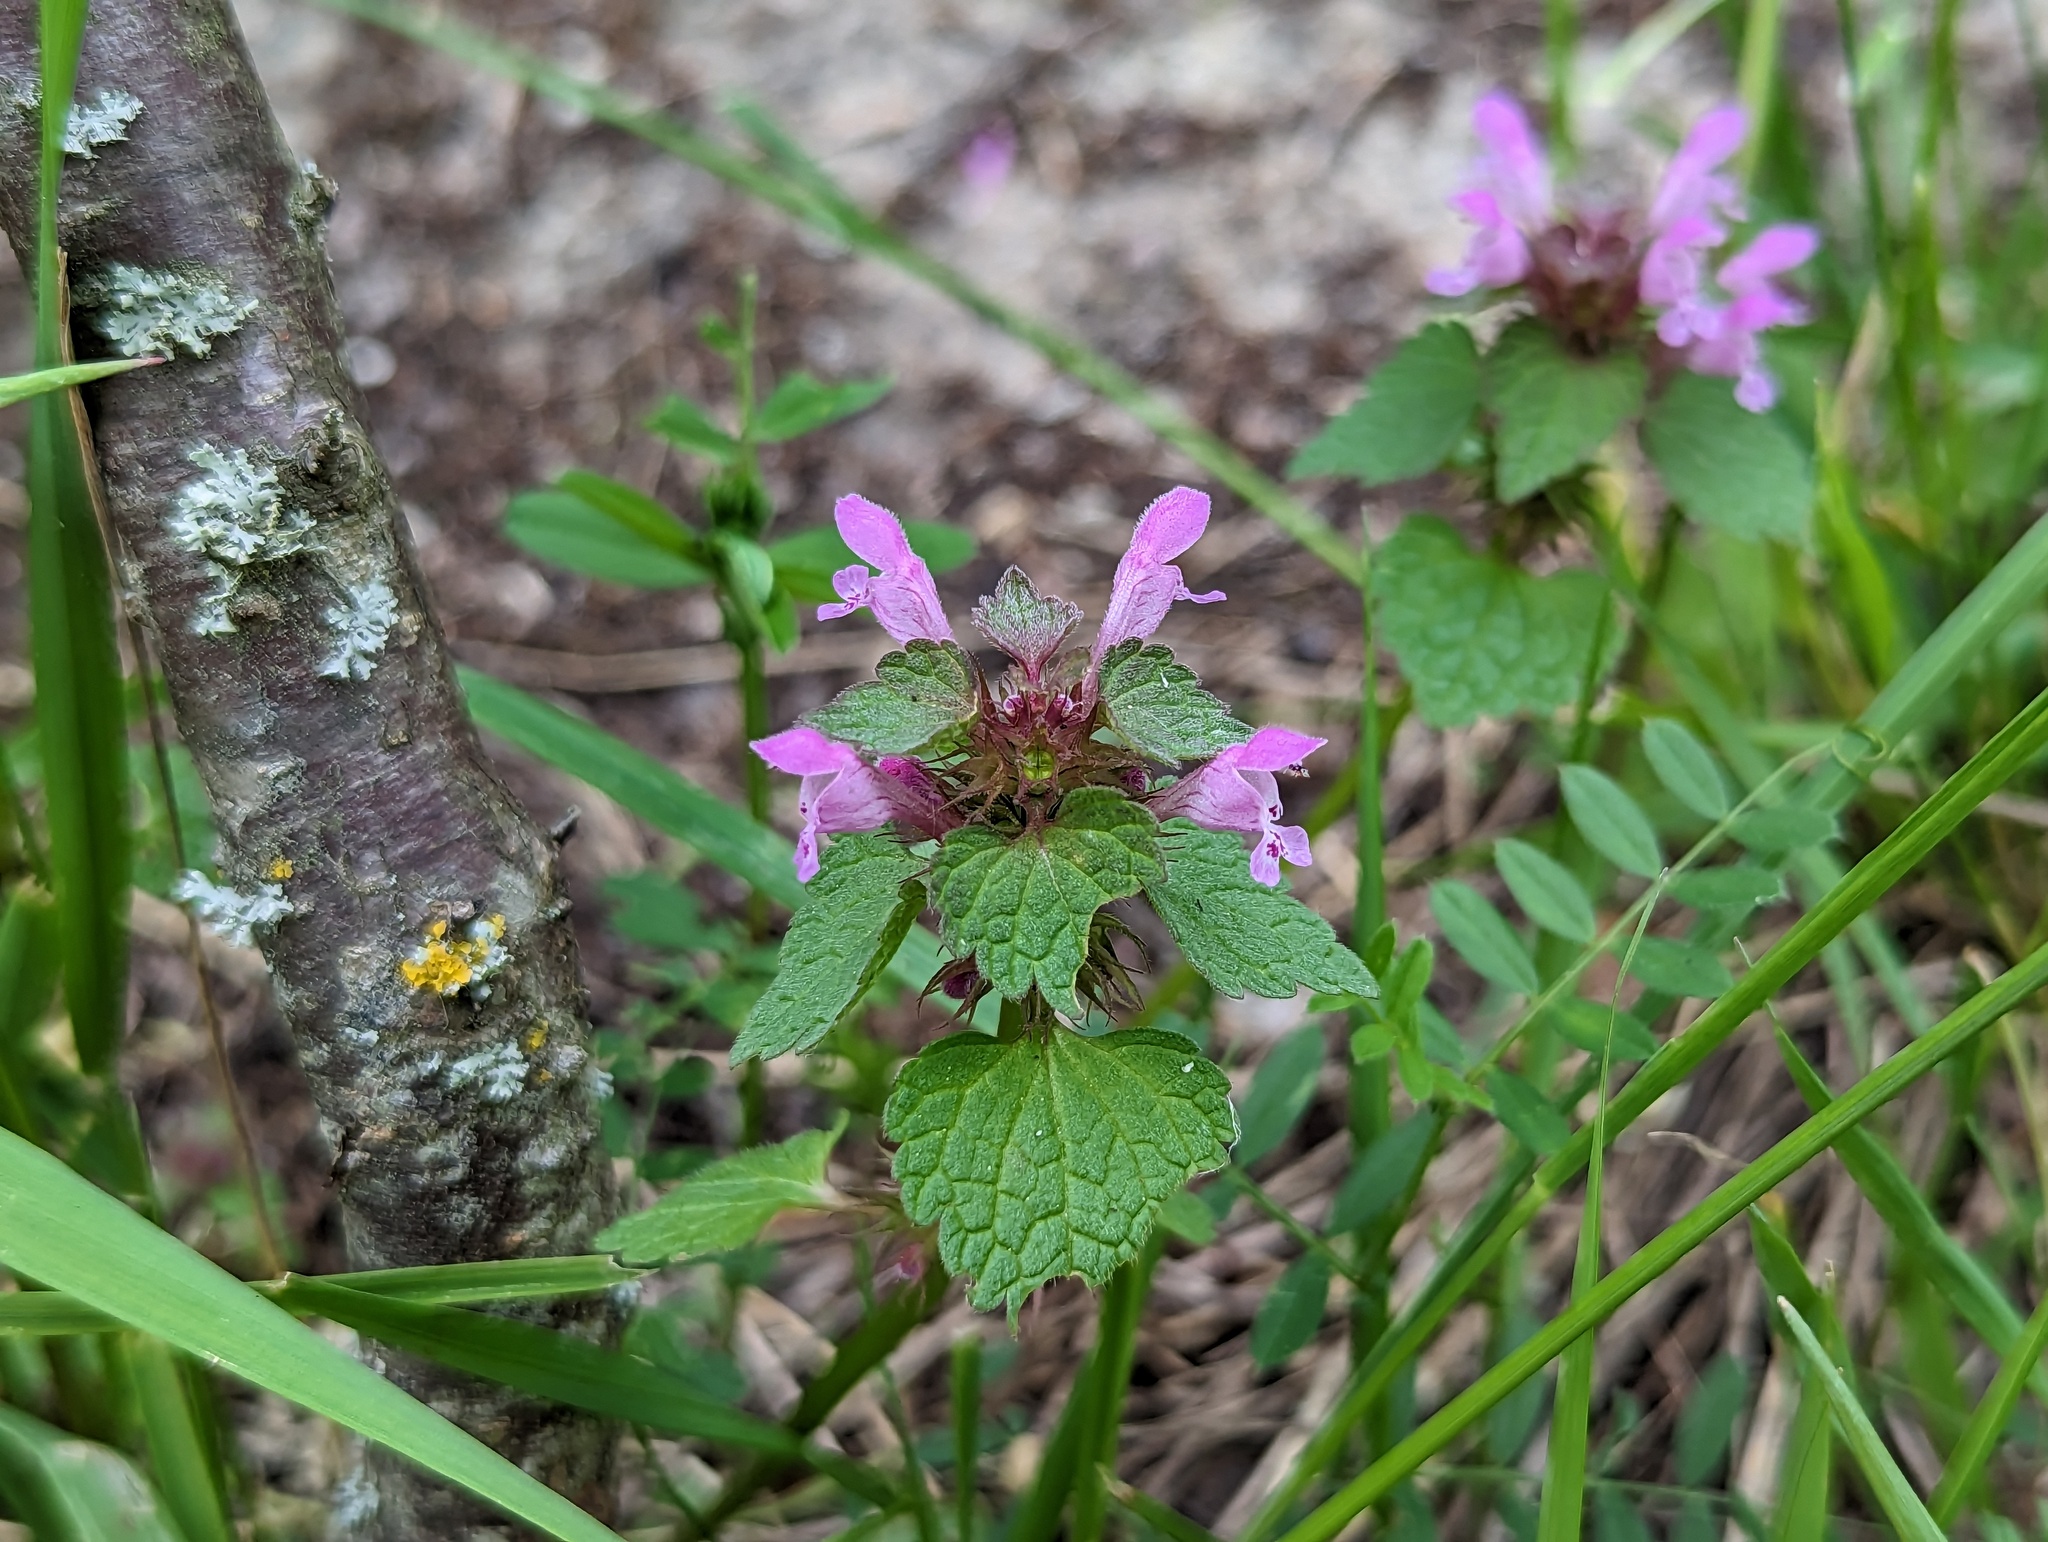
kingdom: Plantae
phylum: Tracheophyta
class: Magnoliopsida
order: Lamiales
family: Lamiaceae
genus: Lamium
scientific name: Lamium purpureum
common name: Red dead-nettle
